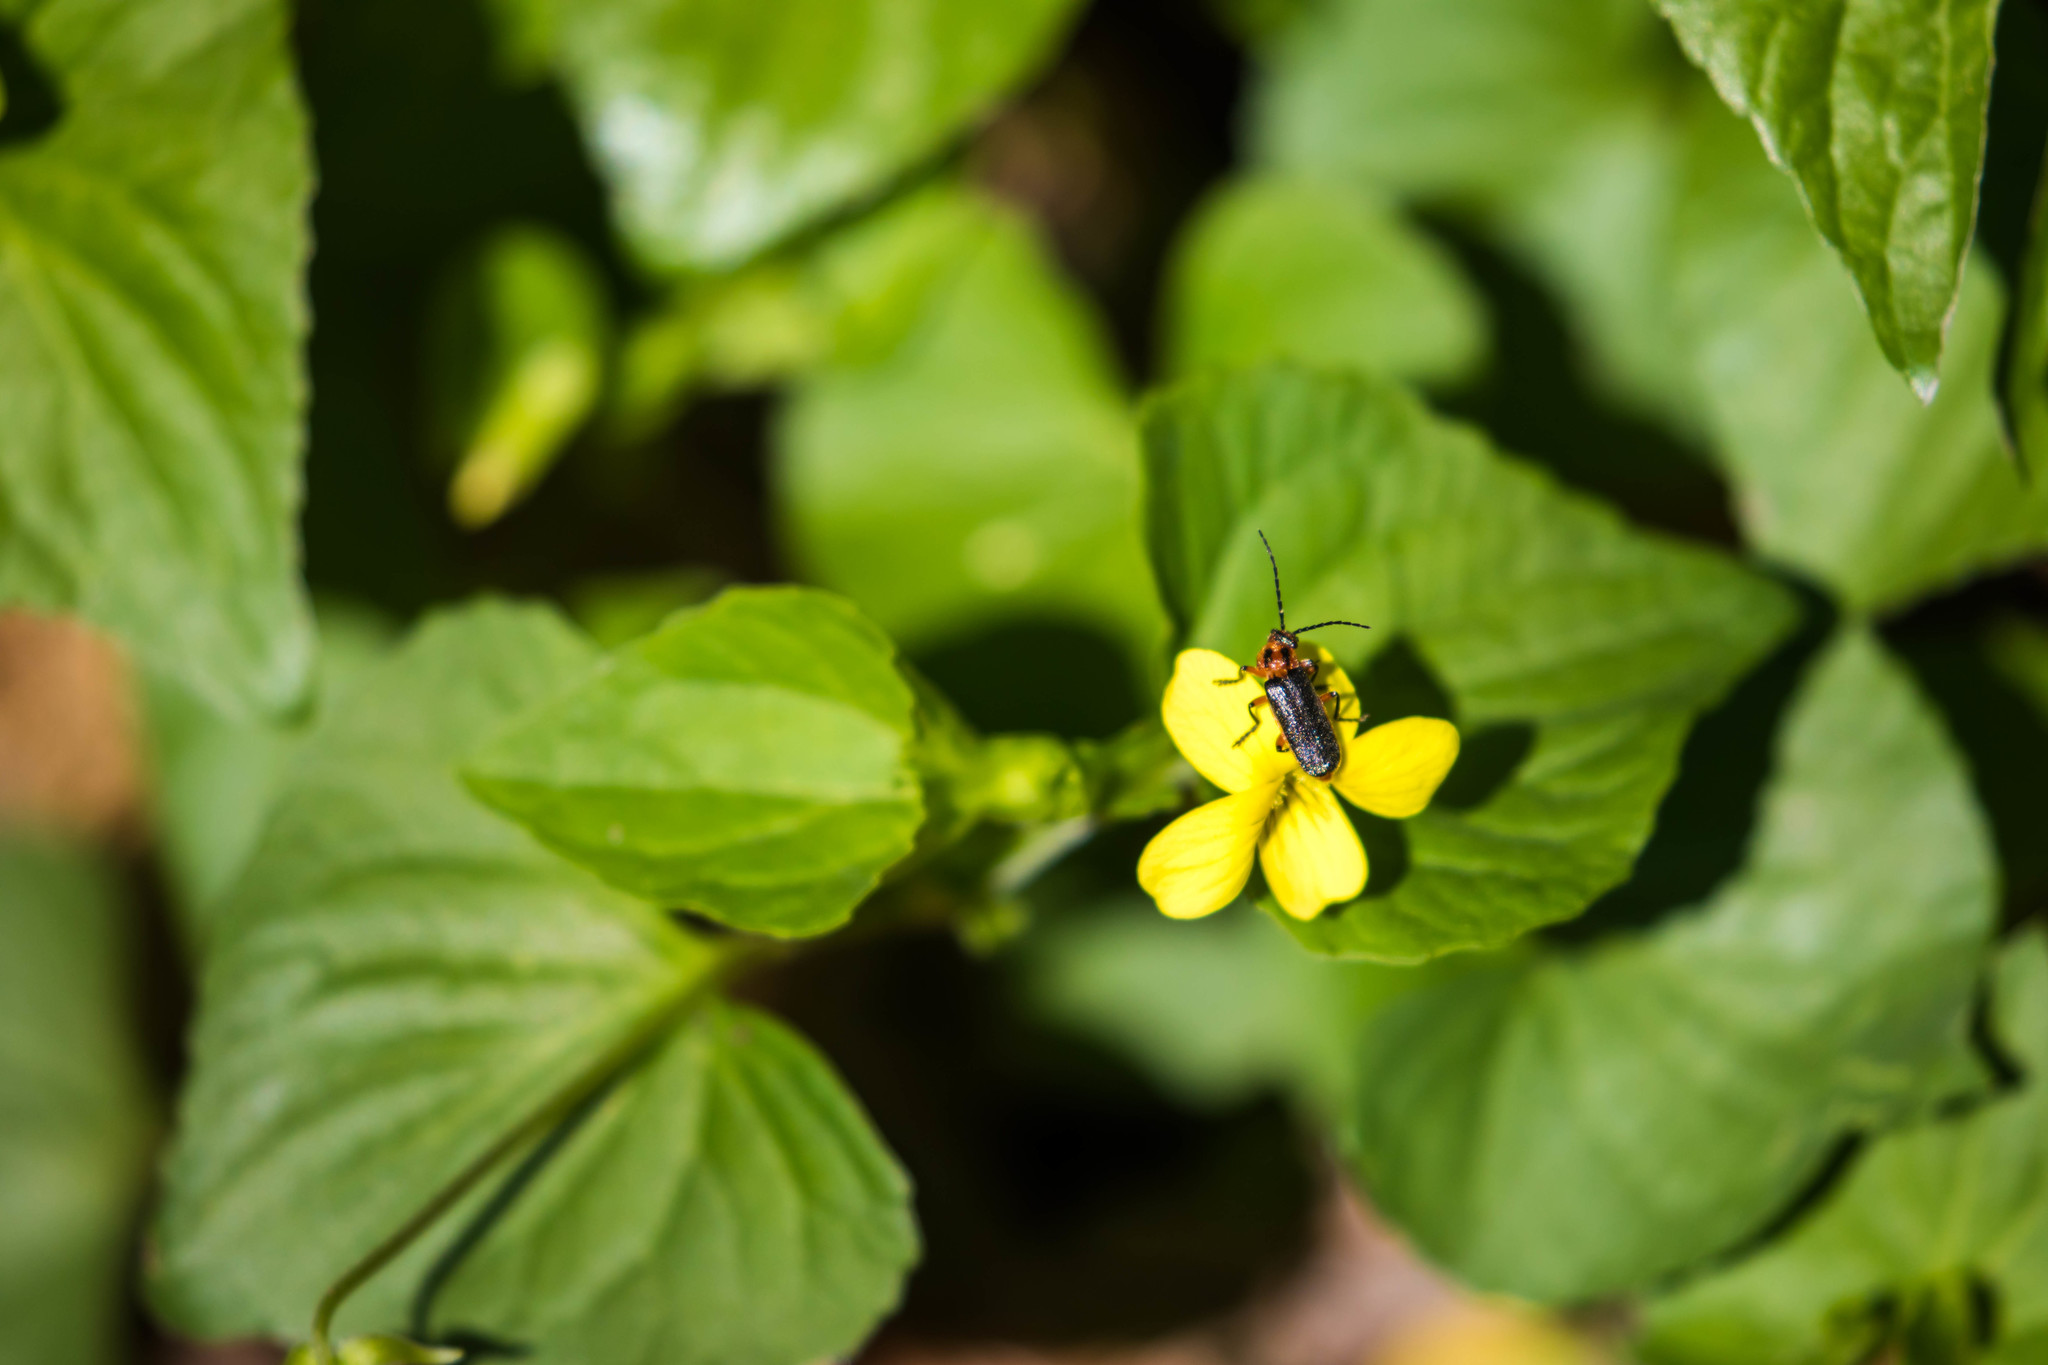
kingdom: Animalia
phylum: Arthropoda
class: Insecta
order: Coleoptera
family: Cantharidae
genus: Atalantycha
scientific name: Atalantycha bilineata
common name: Two-lined leatherwing
